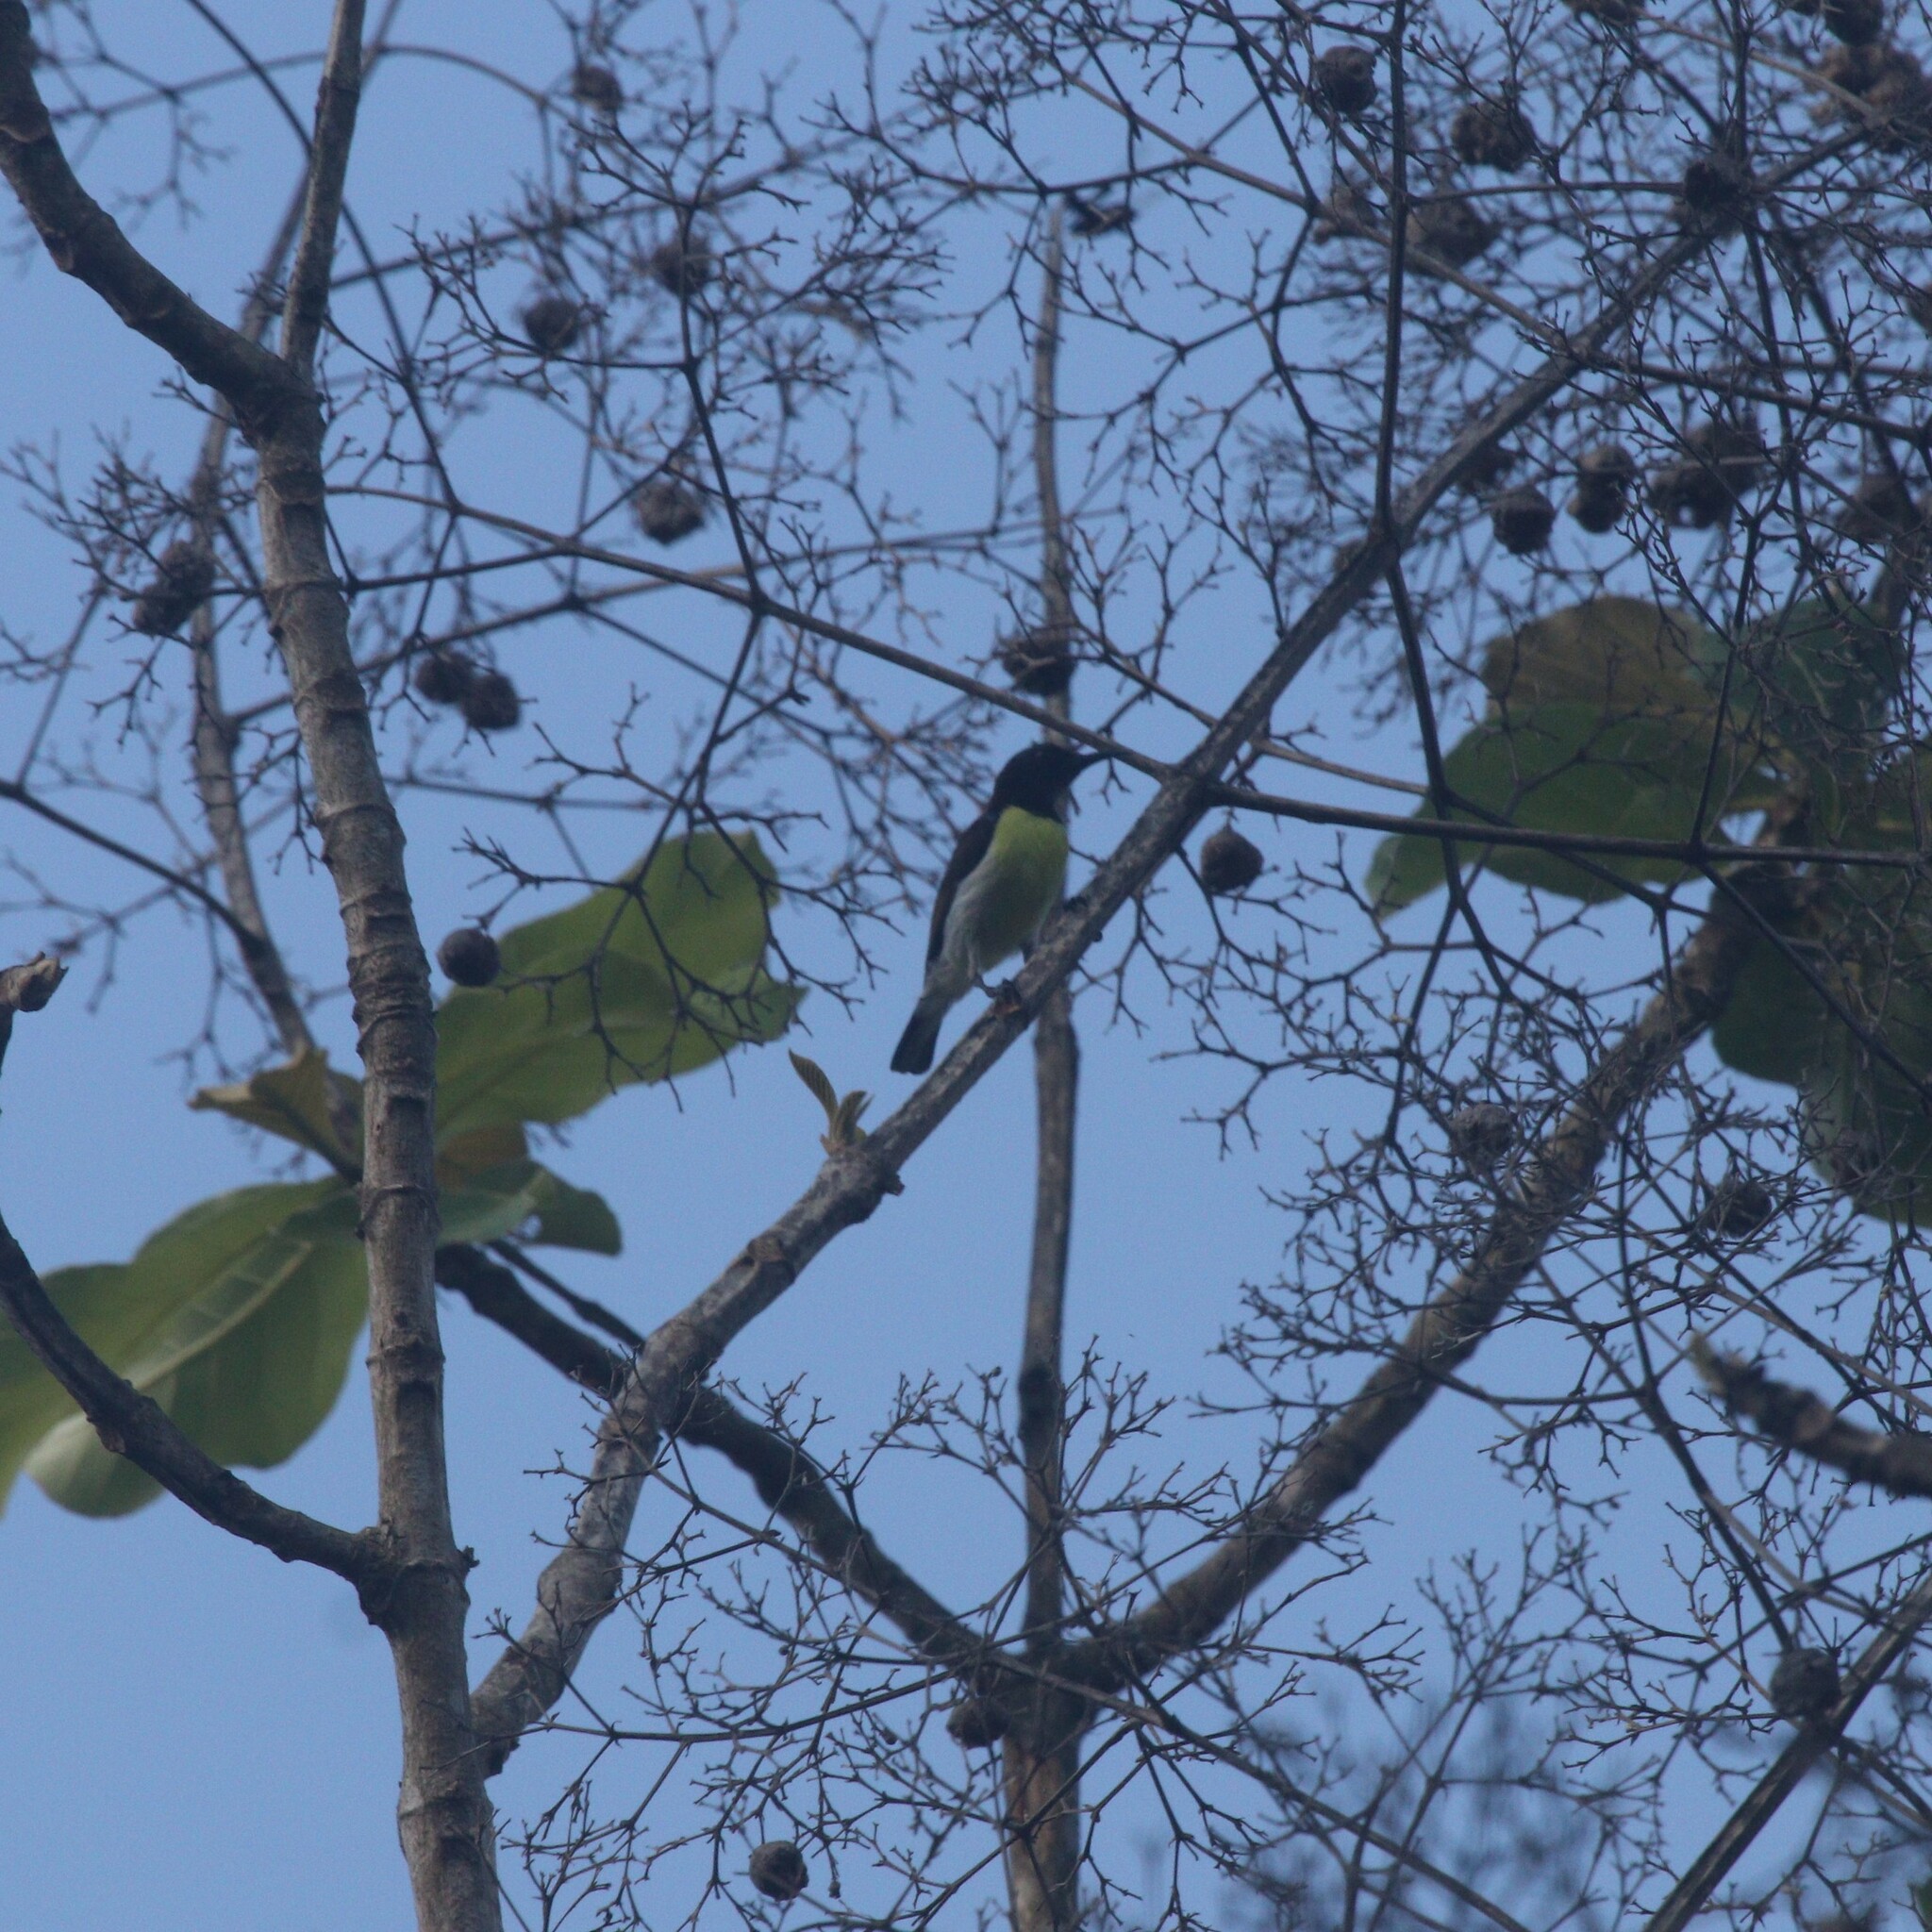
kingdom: Animalia
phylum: Chordata
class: Aves
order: Passeriformes
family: Nectariniidae
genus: Leptocoma
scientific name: Leptocoma zeylonica
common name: Purple-rumped sunbird
